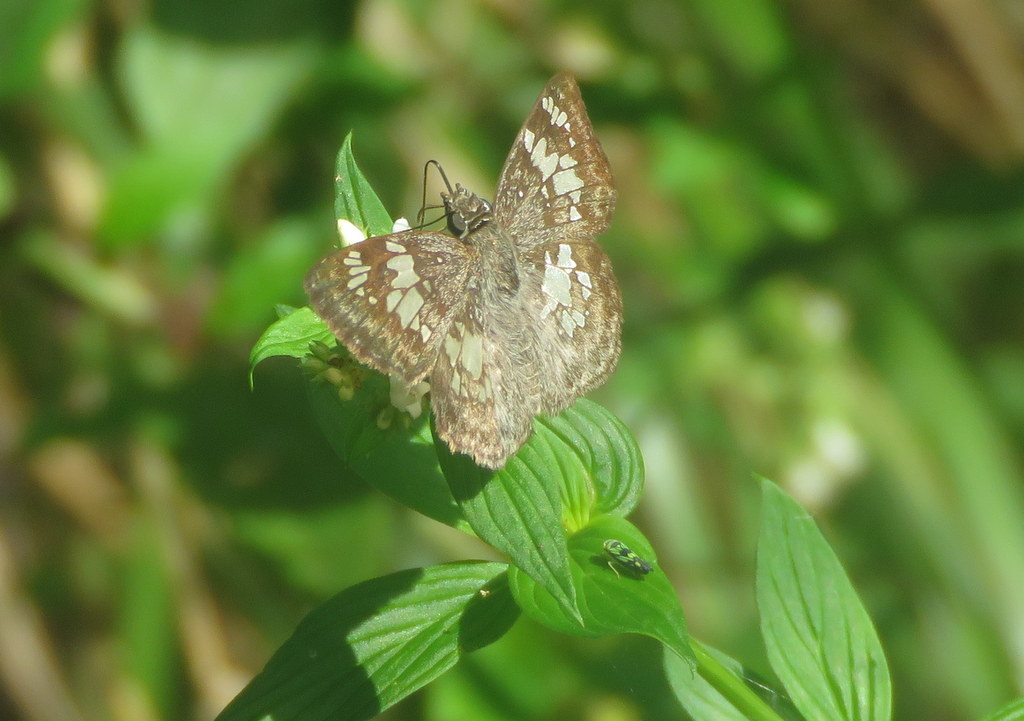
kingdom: Animalia
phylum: Arthropoda
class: Insecta
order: Lepidoptera
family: Hesperiidae
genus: Xenophanes
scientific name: Xenophanes tryxus
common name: Glassy-winged skipper
